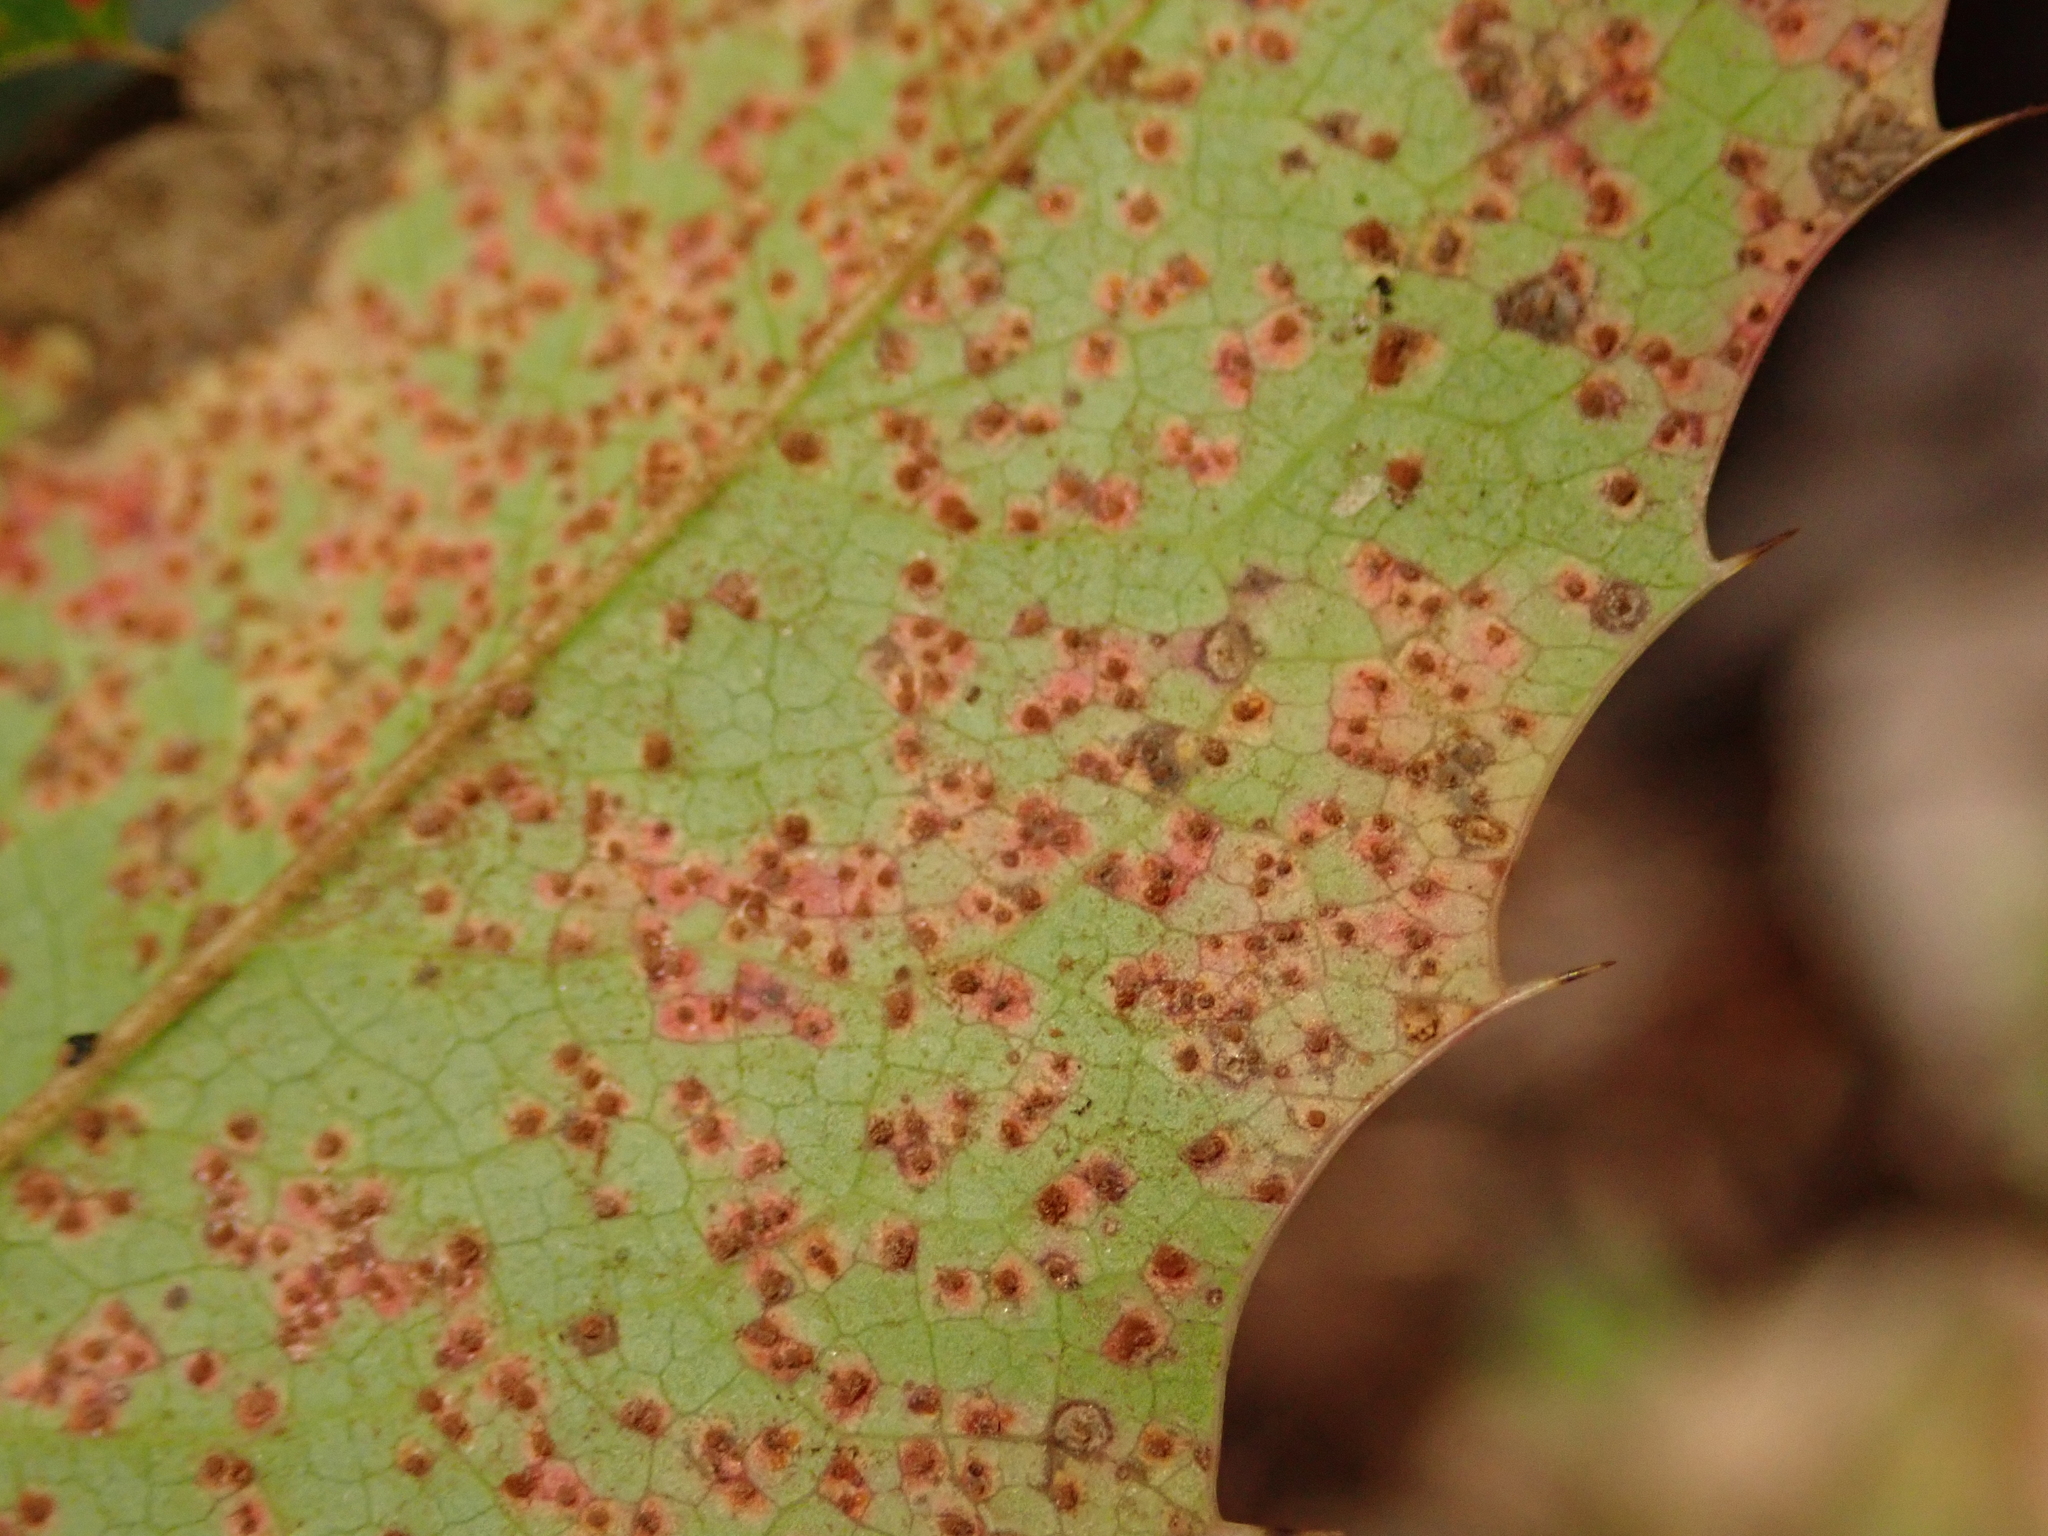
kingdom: Fungi
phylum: Basidiomycota
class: Pucciniomycetes
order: Pucciniales
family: Pucciniaceae
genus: Cumminsiella
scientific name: Cumminsiella mirabilissima
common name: Mahonia rust
